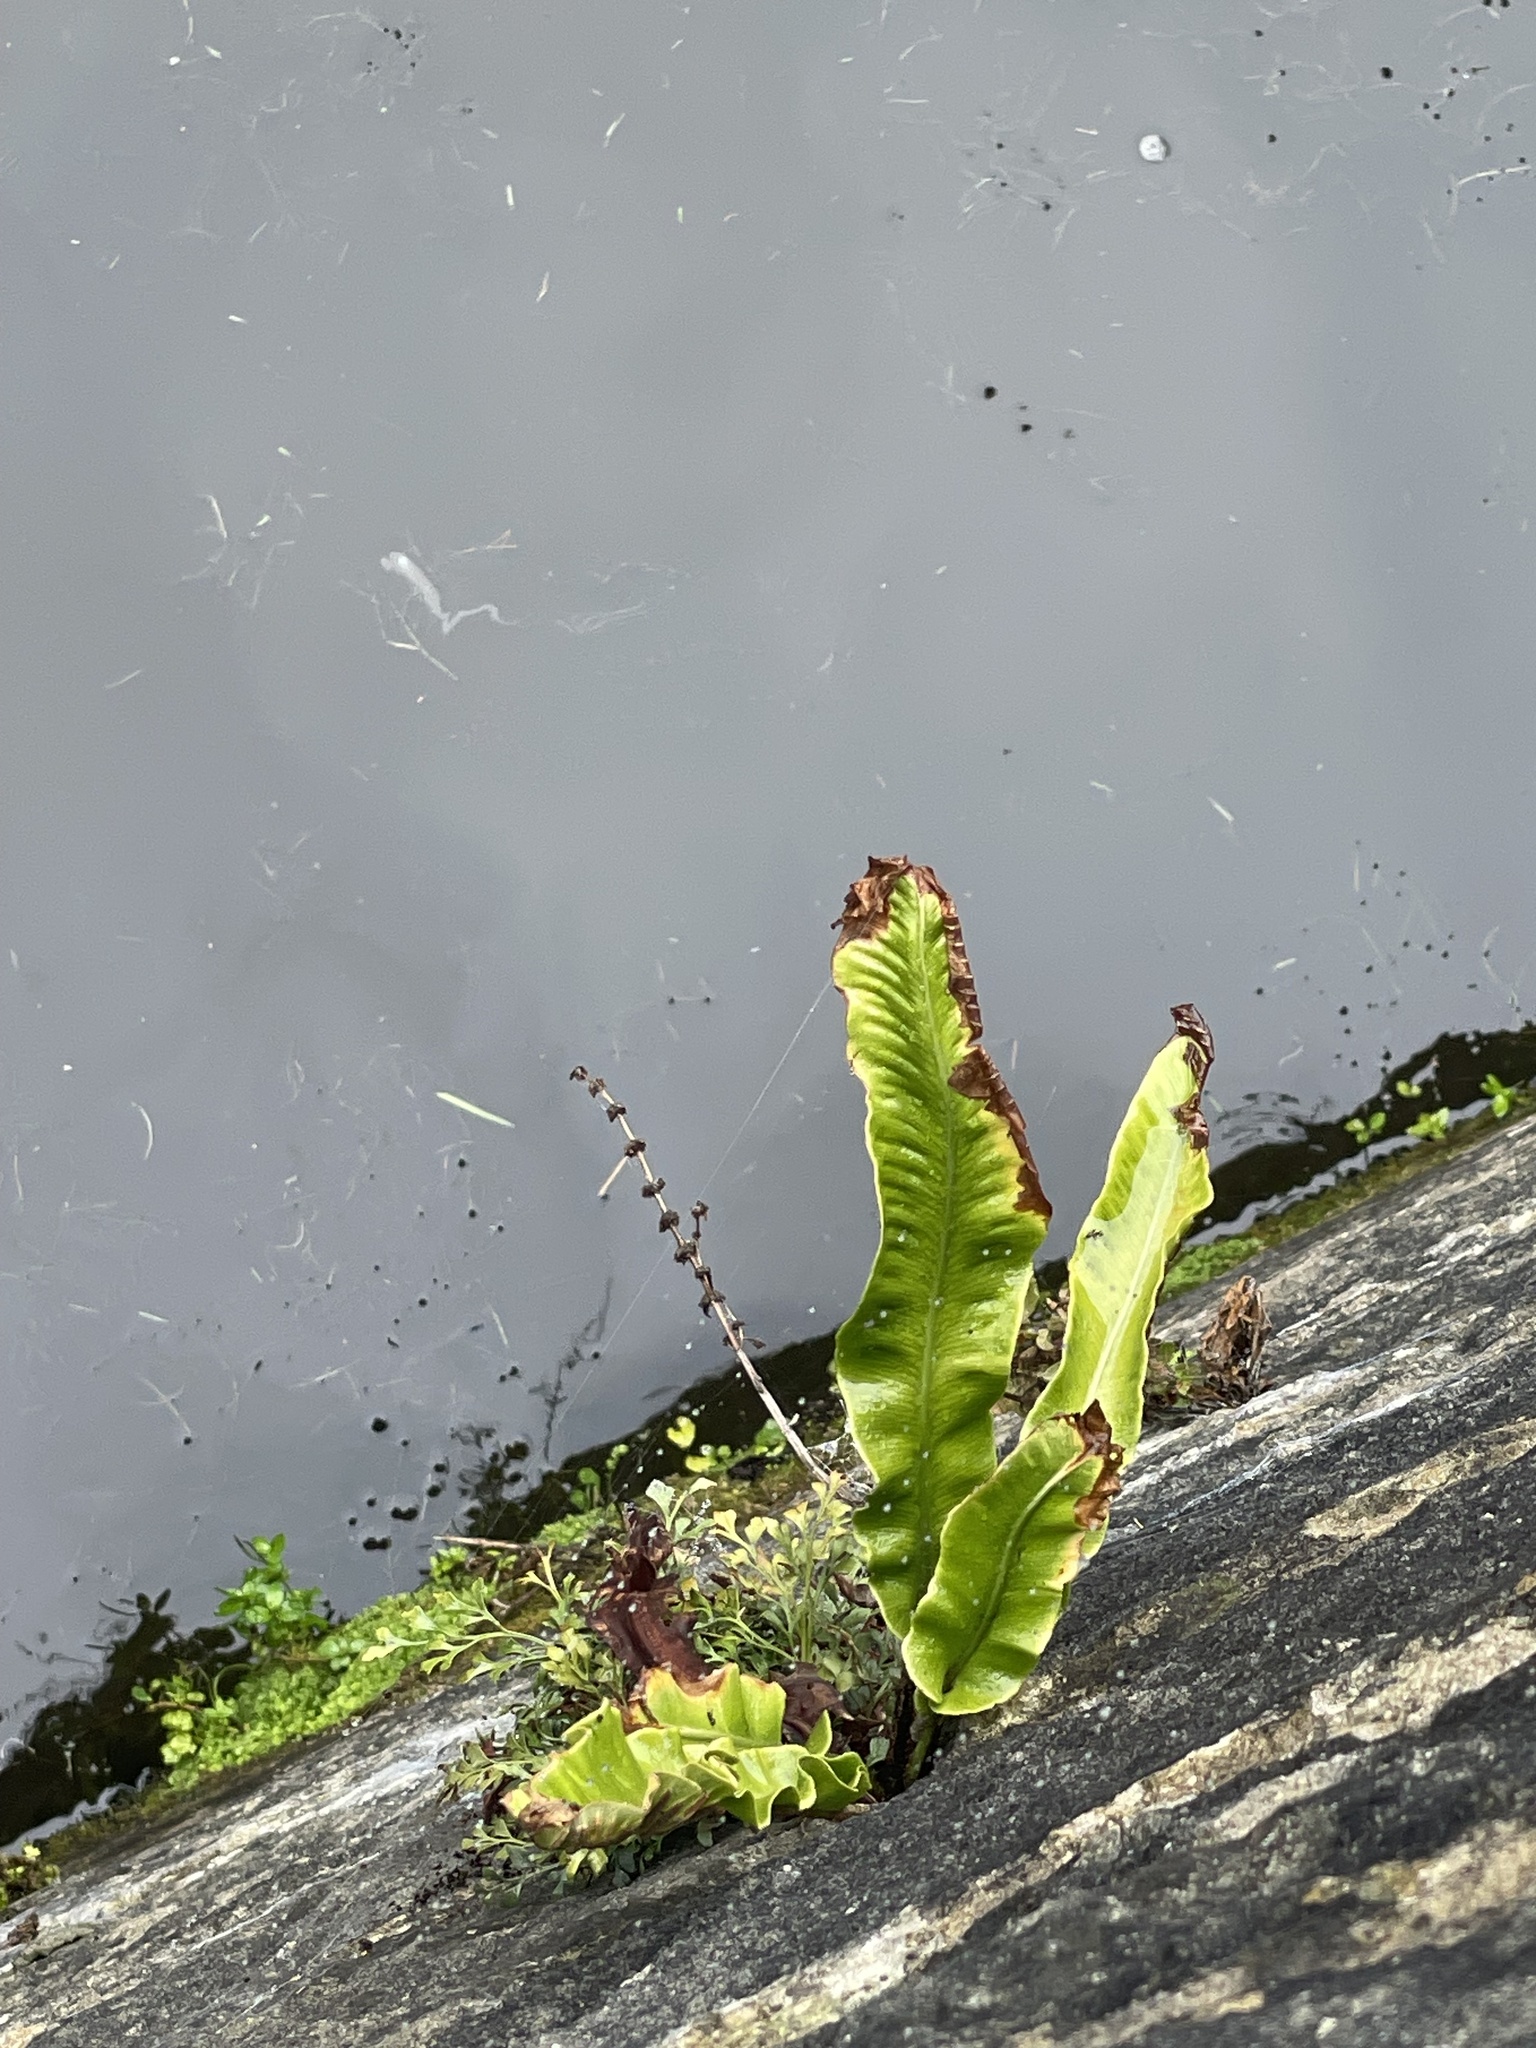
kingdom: Plantae
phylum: Tracheophyta
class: Polypodiopsida
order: Polypodiales
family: Aspleniaceae
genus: Asplenium
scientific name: Asplenium scolopendrium
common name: Hart's-tongue fern
